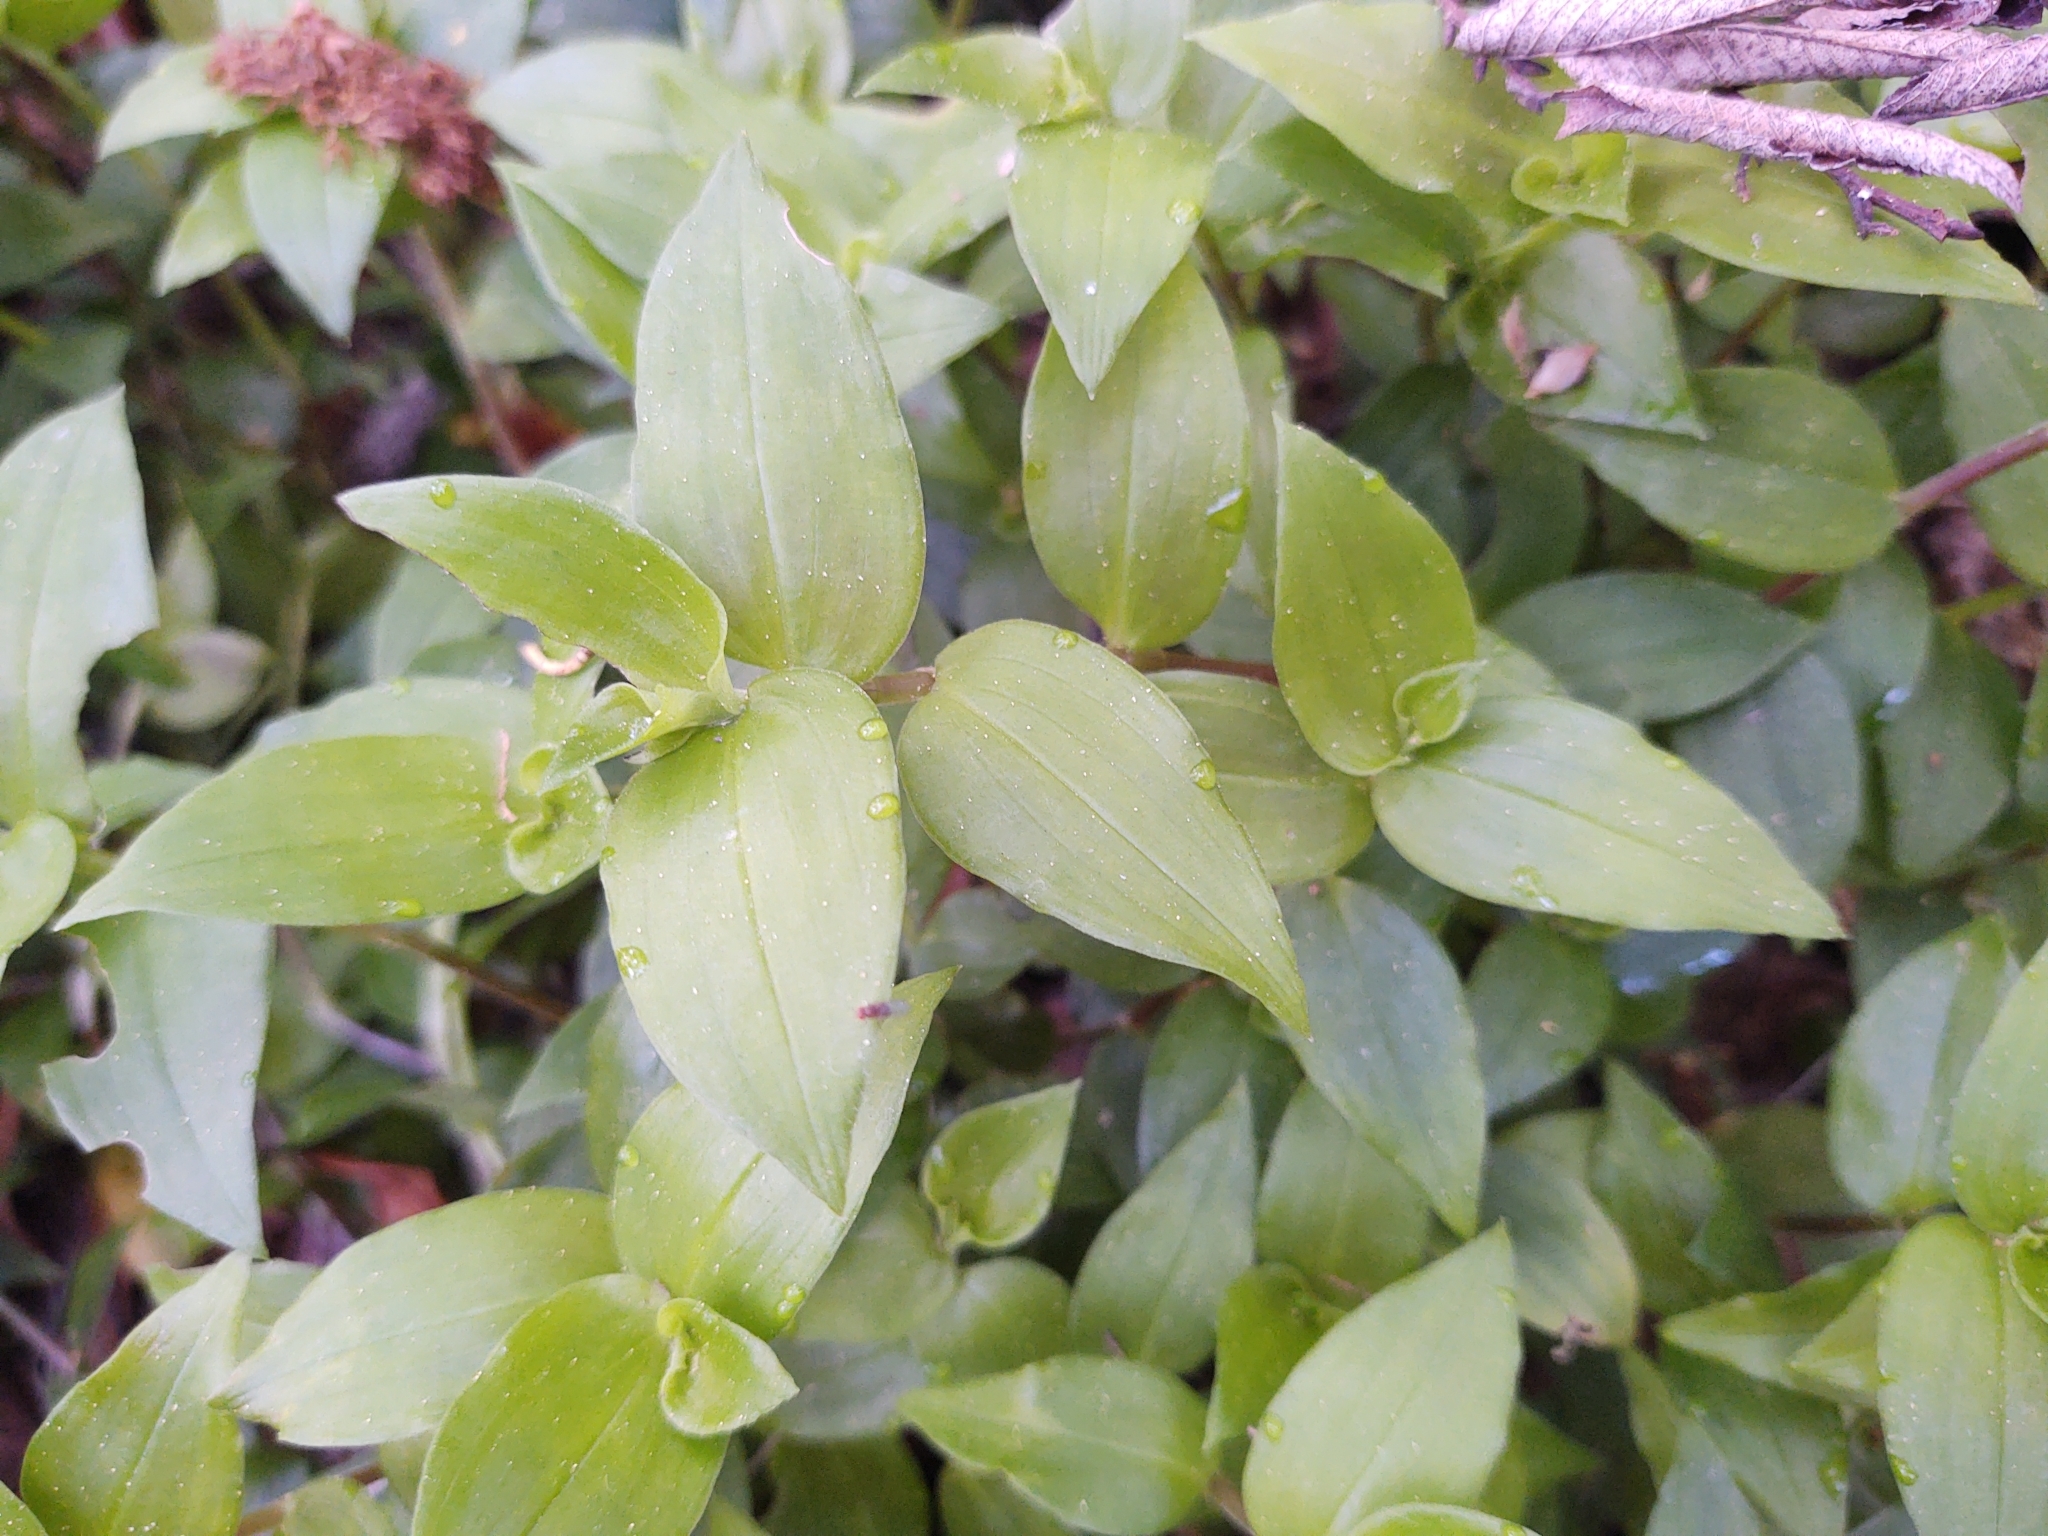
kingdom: Plantae
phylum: Tracheophyta
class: Liliopsida
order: Commelinales
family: Commelinaceae
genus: Tradescantia
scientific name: Tradescantia fluminensis
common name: Wandering-jew
